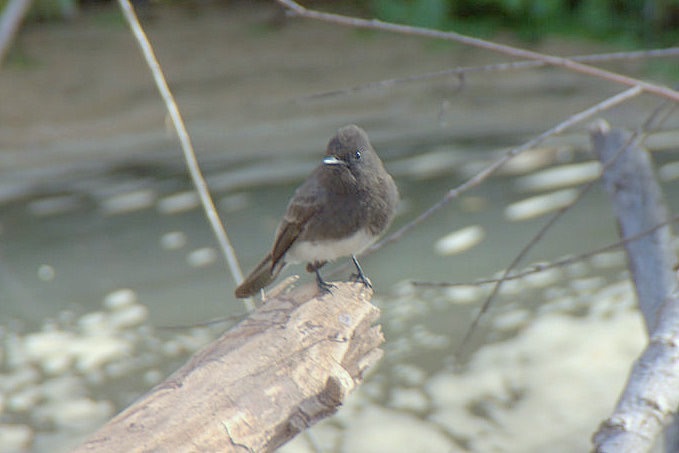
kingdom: Animalia
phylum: Chordata
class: Aves
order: Passeriformes
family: Tyrannidae
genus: Sayornis
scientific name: Sayornis nigricans
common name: Black phoebe
